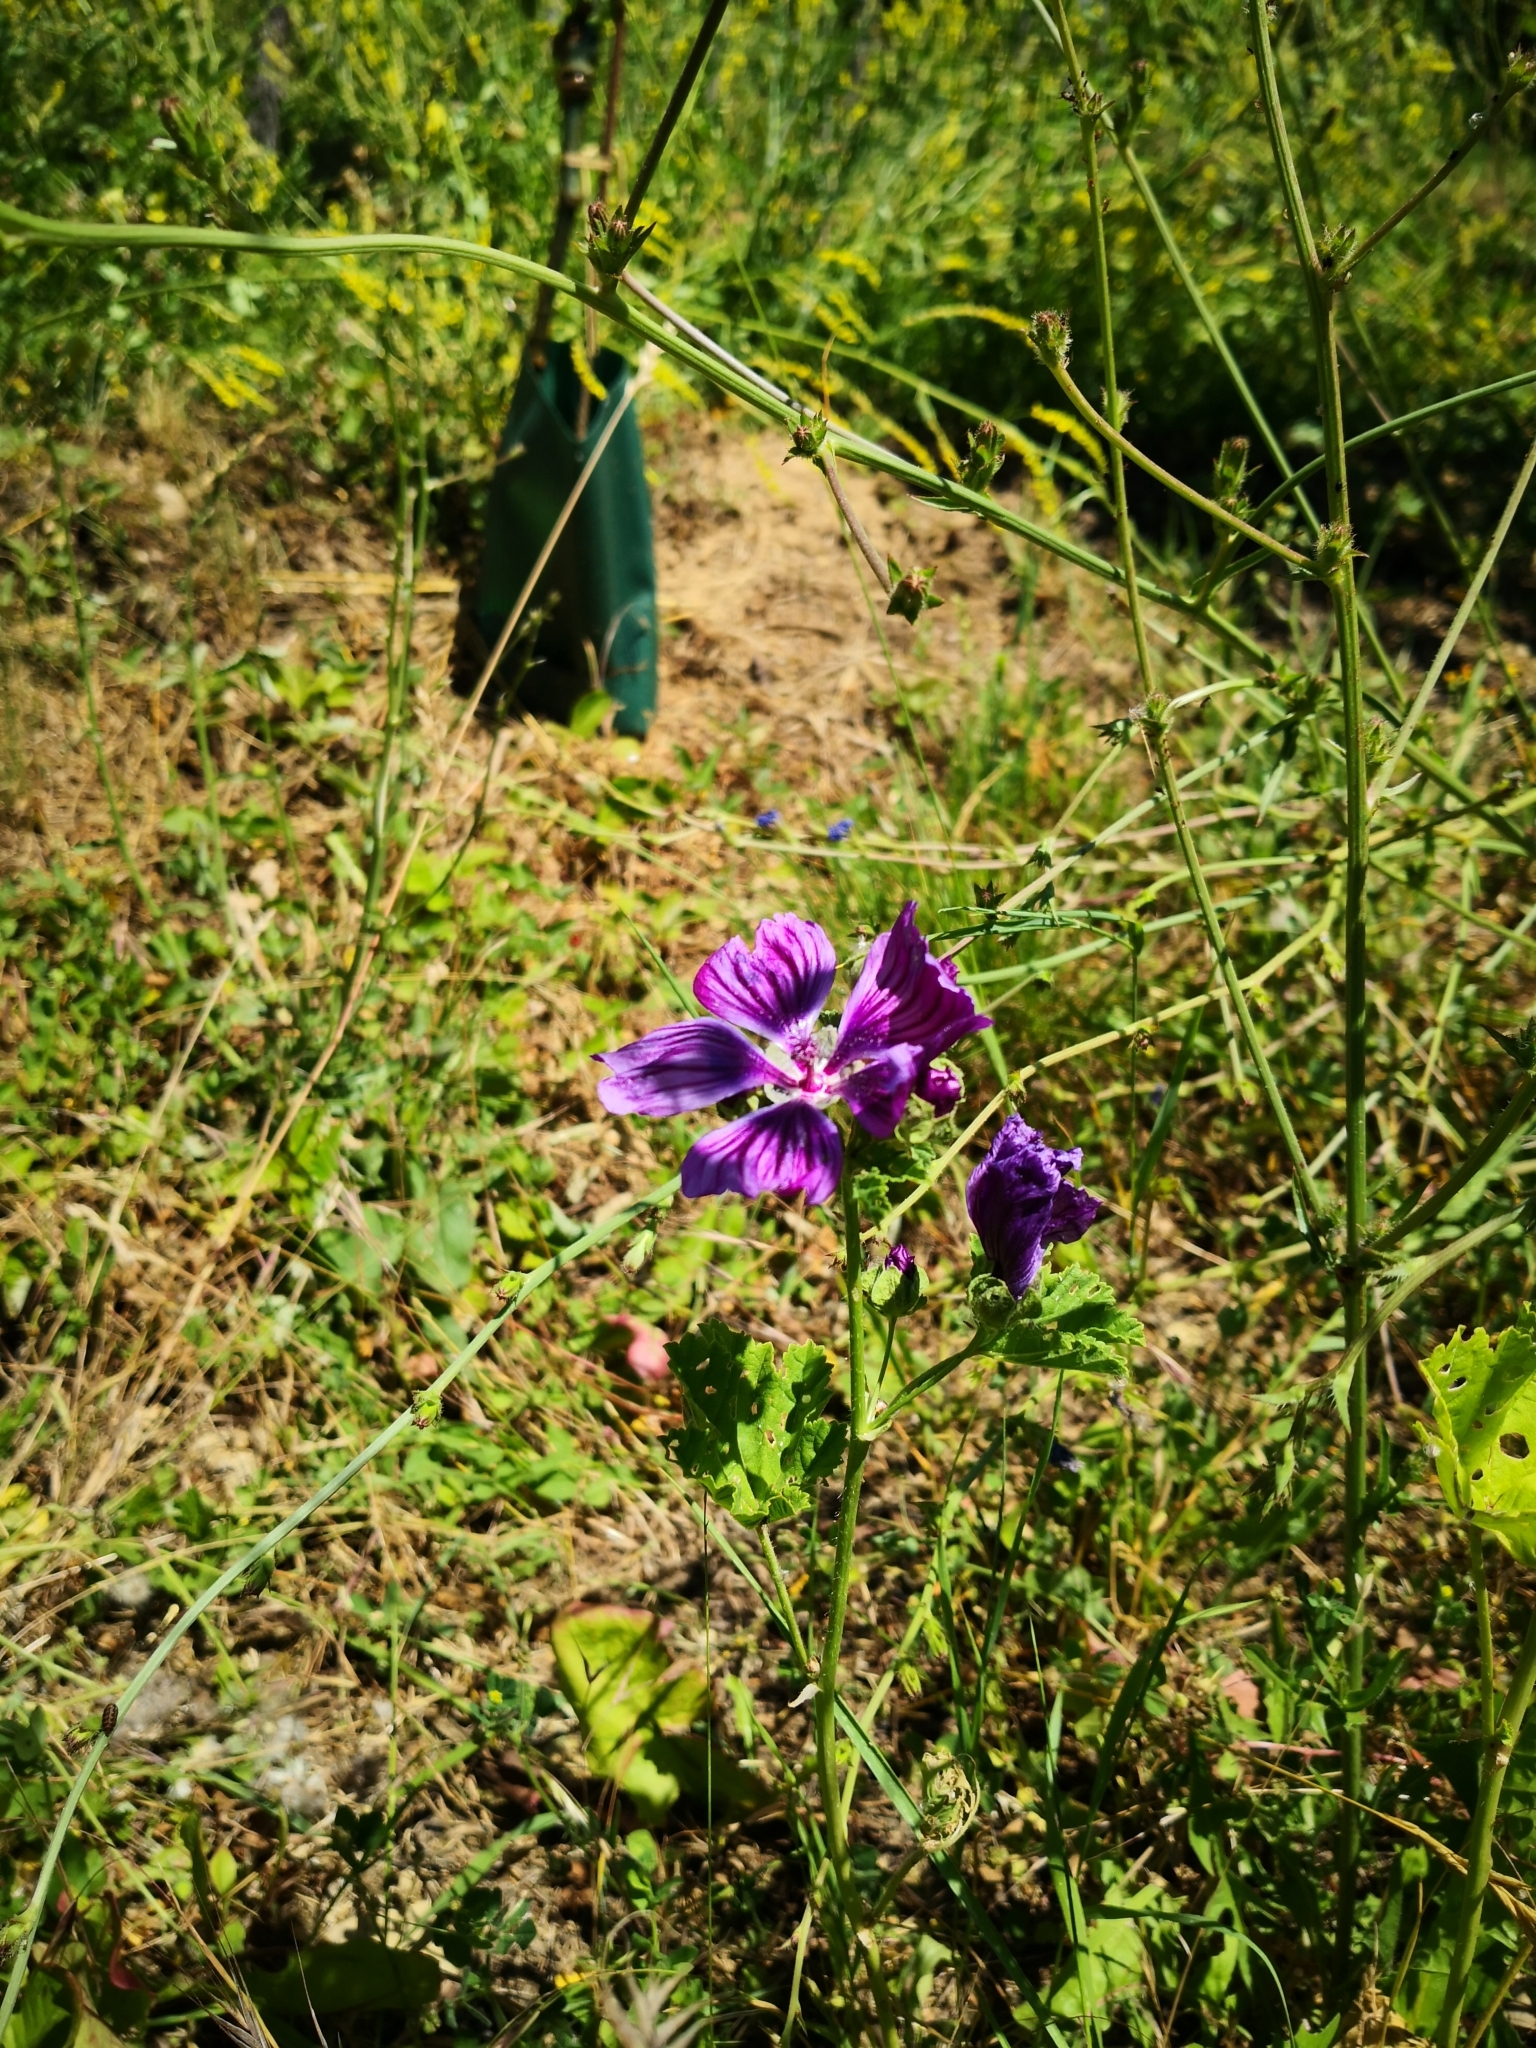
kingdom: Plantae
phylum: Tracheophyta
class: Magnoliopsida
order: Malvales
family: Malvaceae
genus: Malva
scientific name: Malva sylvestris
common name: Common mallow
